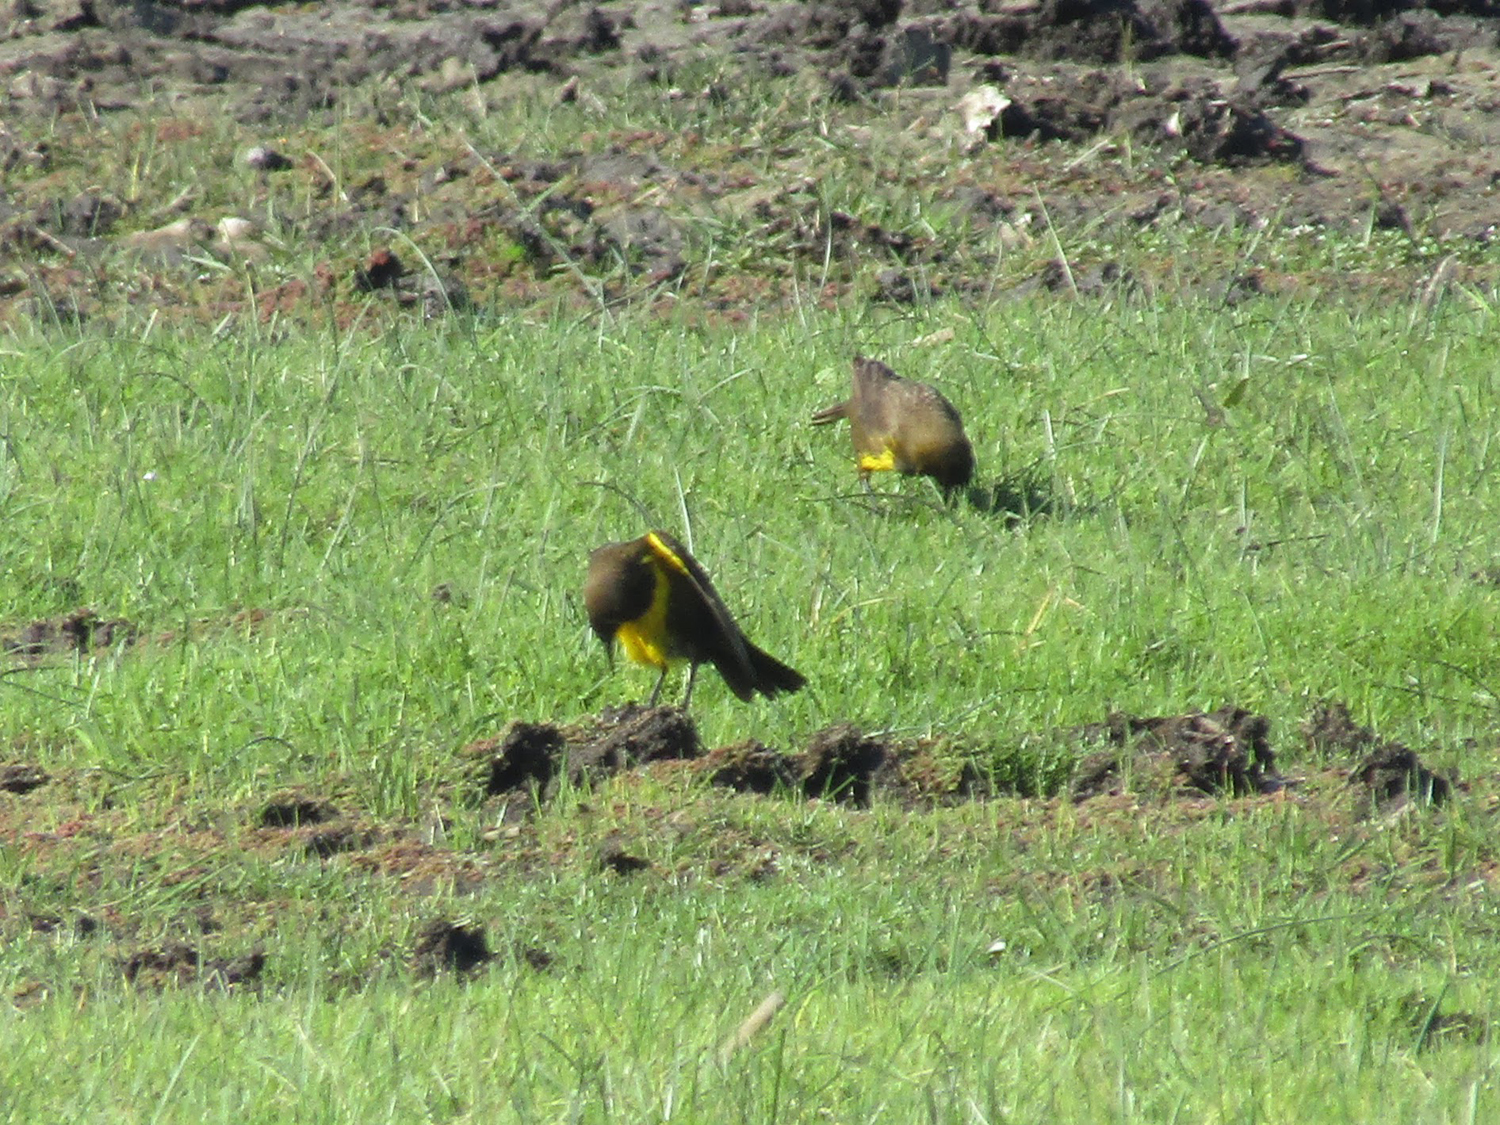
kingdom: Animalia
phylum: Chordata
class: Aves
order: Passeriformes
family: Icteridae
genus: Pseudoleistes
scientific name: Pseudoleistes virescens
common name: Brown-and-yellow marshbird
